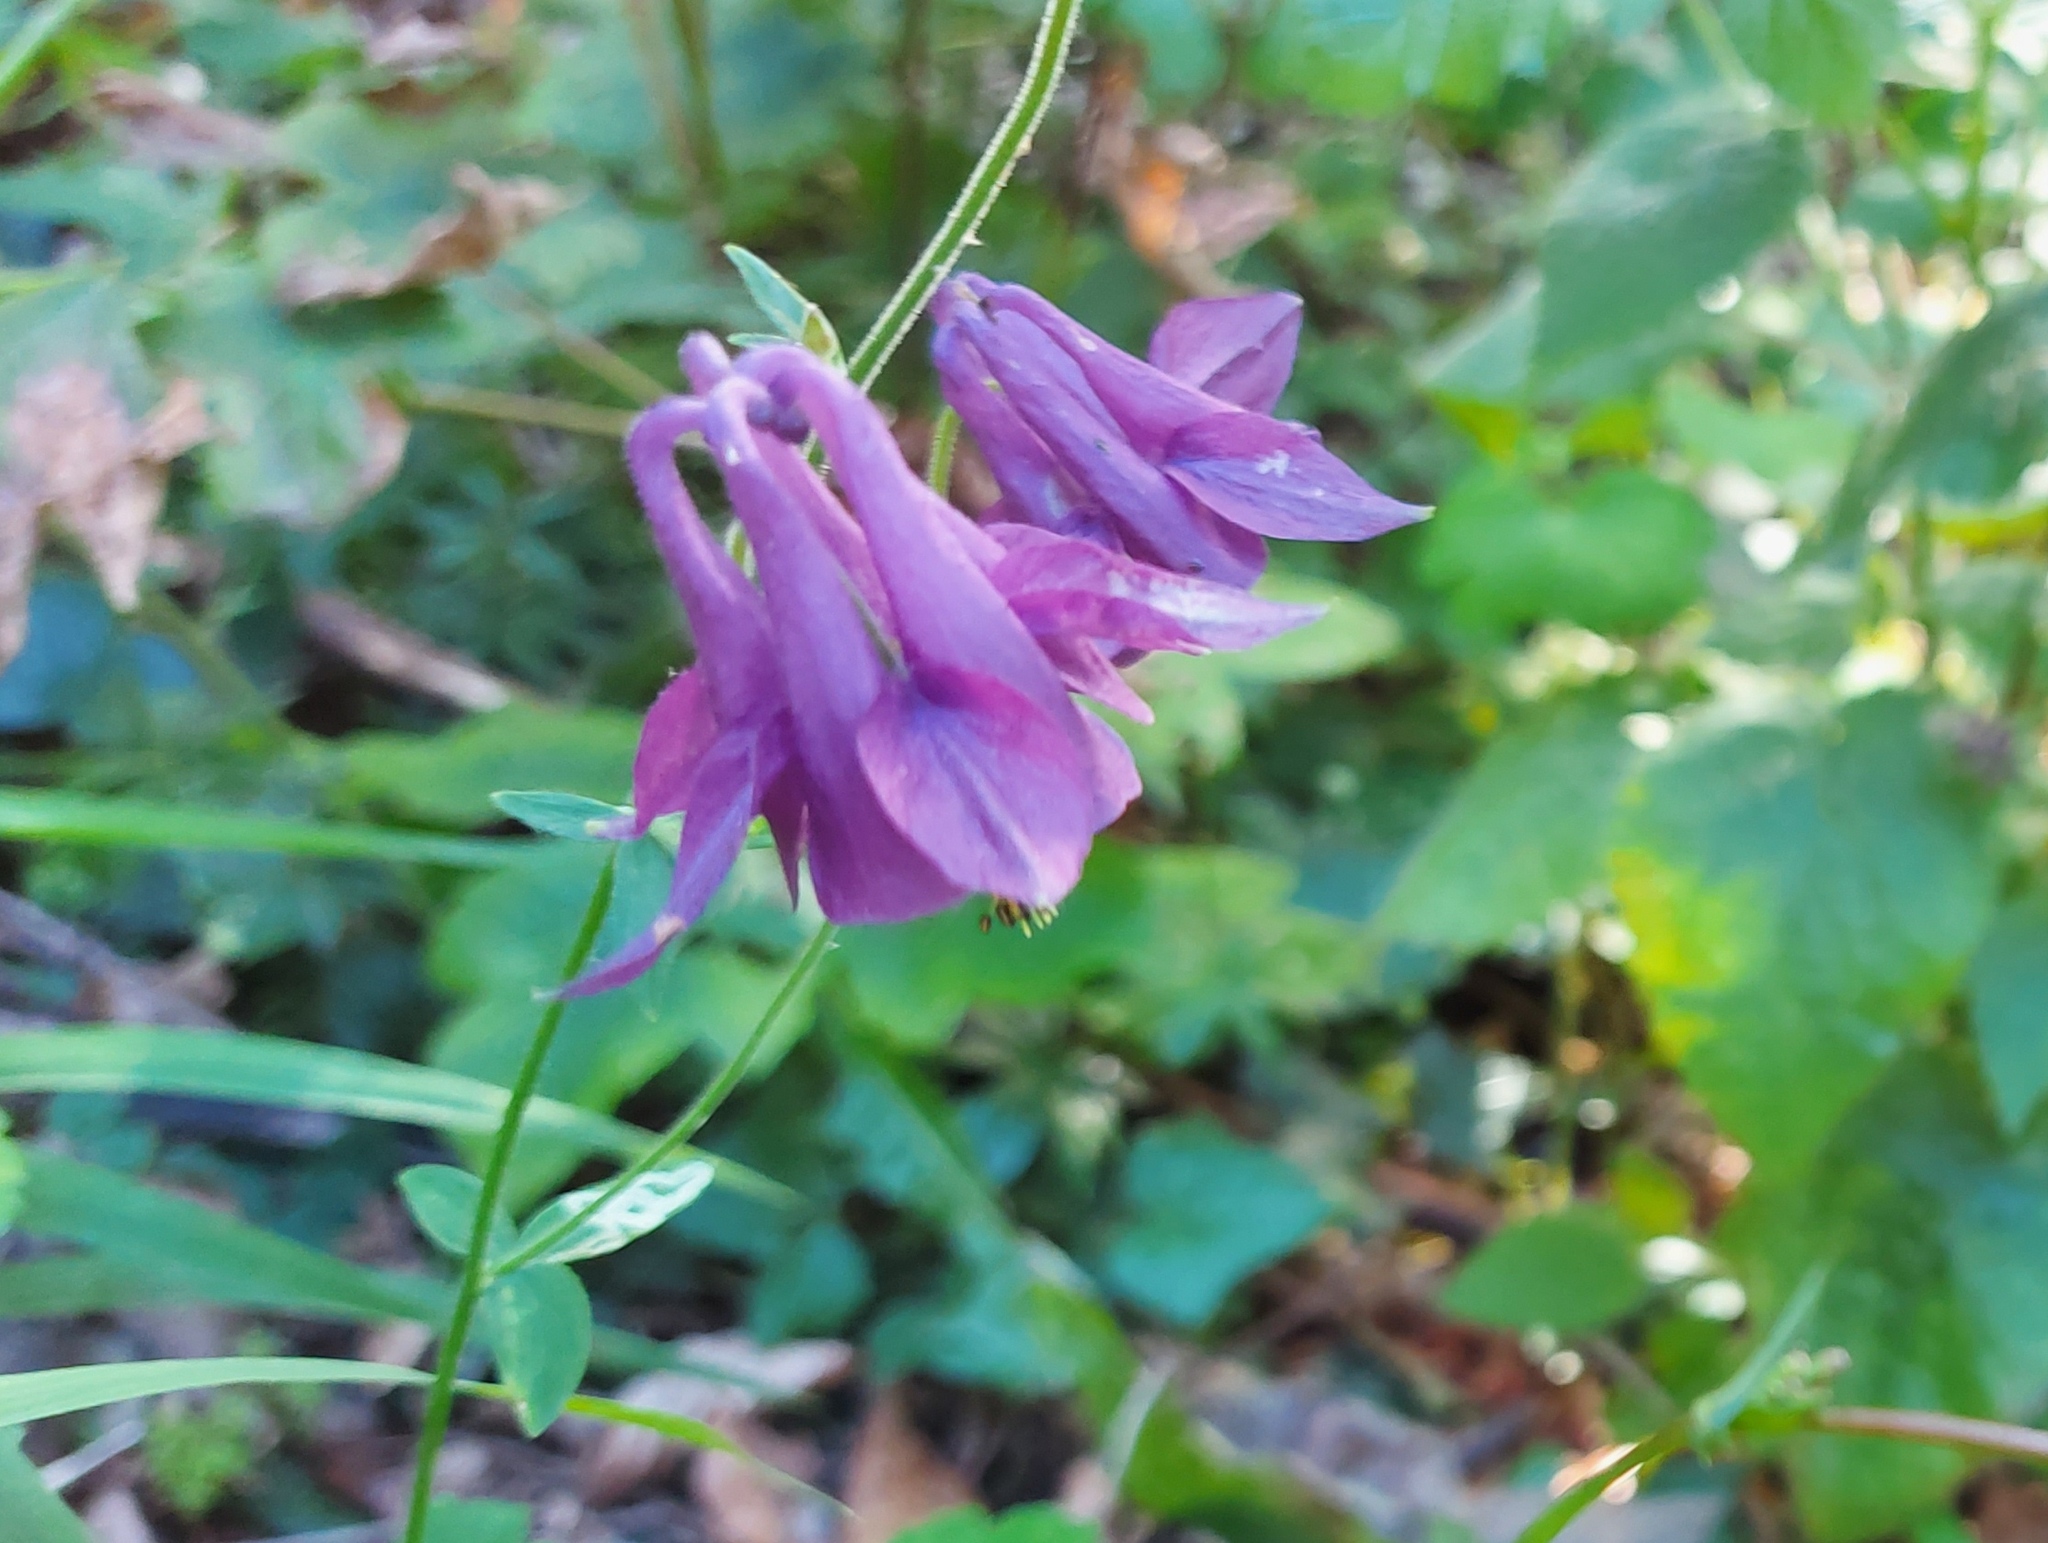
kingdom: Plantae
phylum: Tracheophyta
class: Magnoliopsida
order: Ranunculales
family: Ranunculaceae
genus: Aquilegia
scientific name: Aquilegia vulgaris
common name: Columbine
